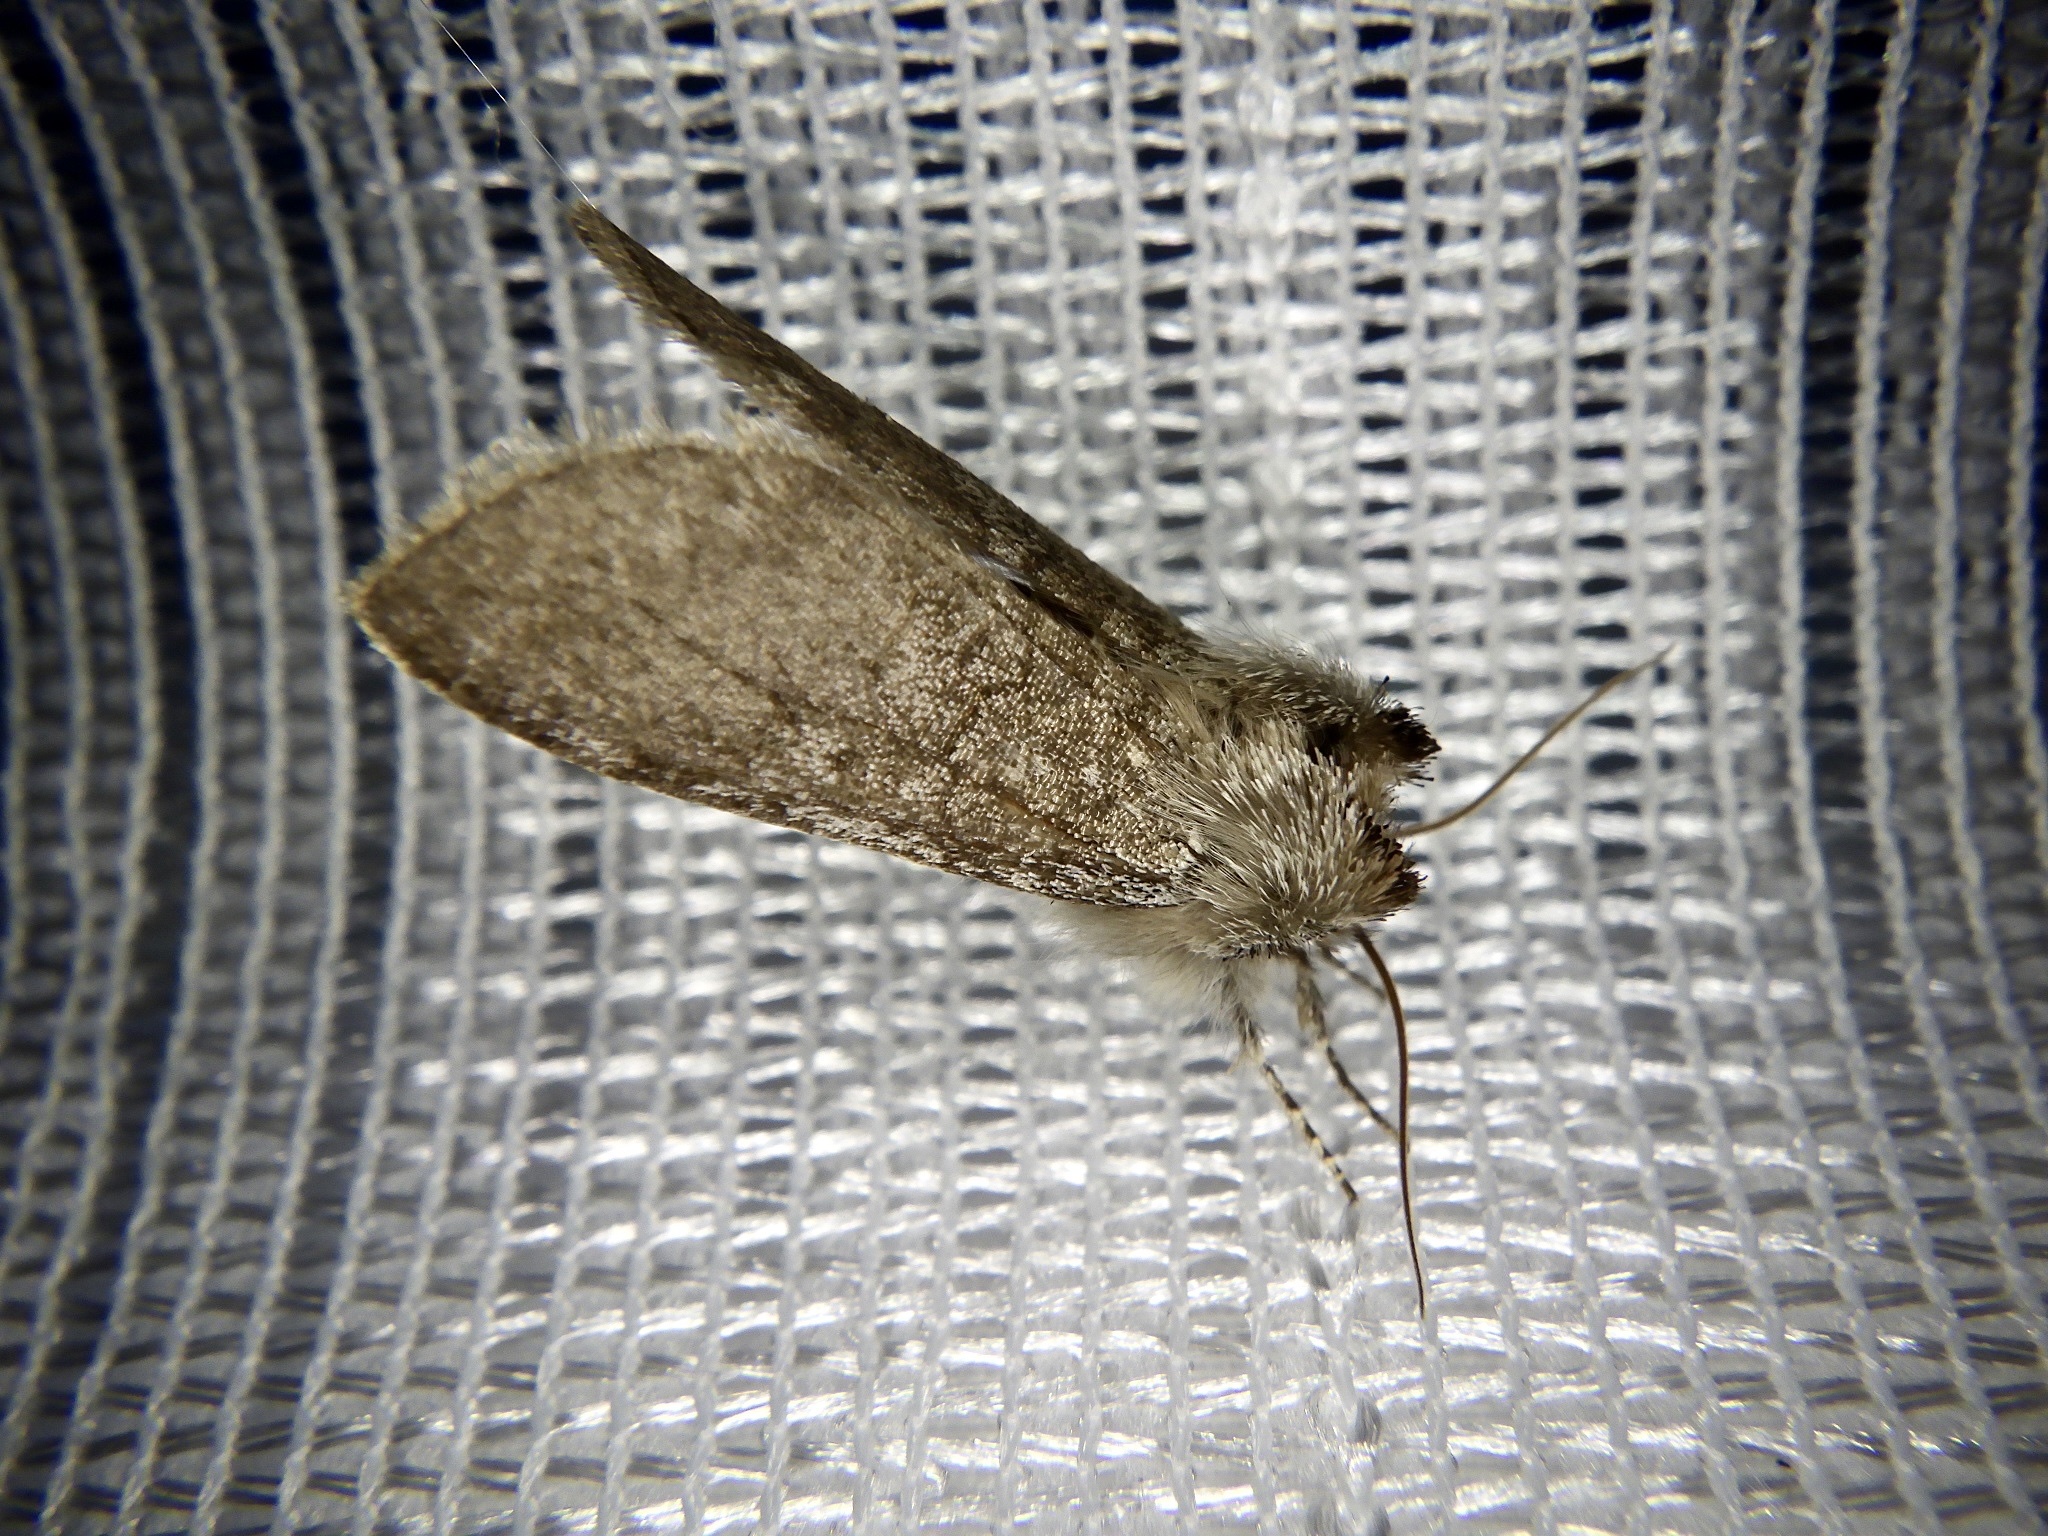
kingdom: Animalia
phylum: Arthropoda
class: Insecta
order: Lepidoptera
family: Drepanidae
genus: Achlya
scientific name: Achlya kuramana
